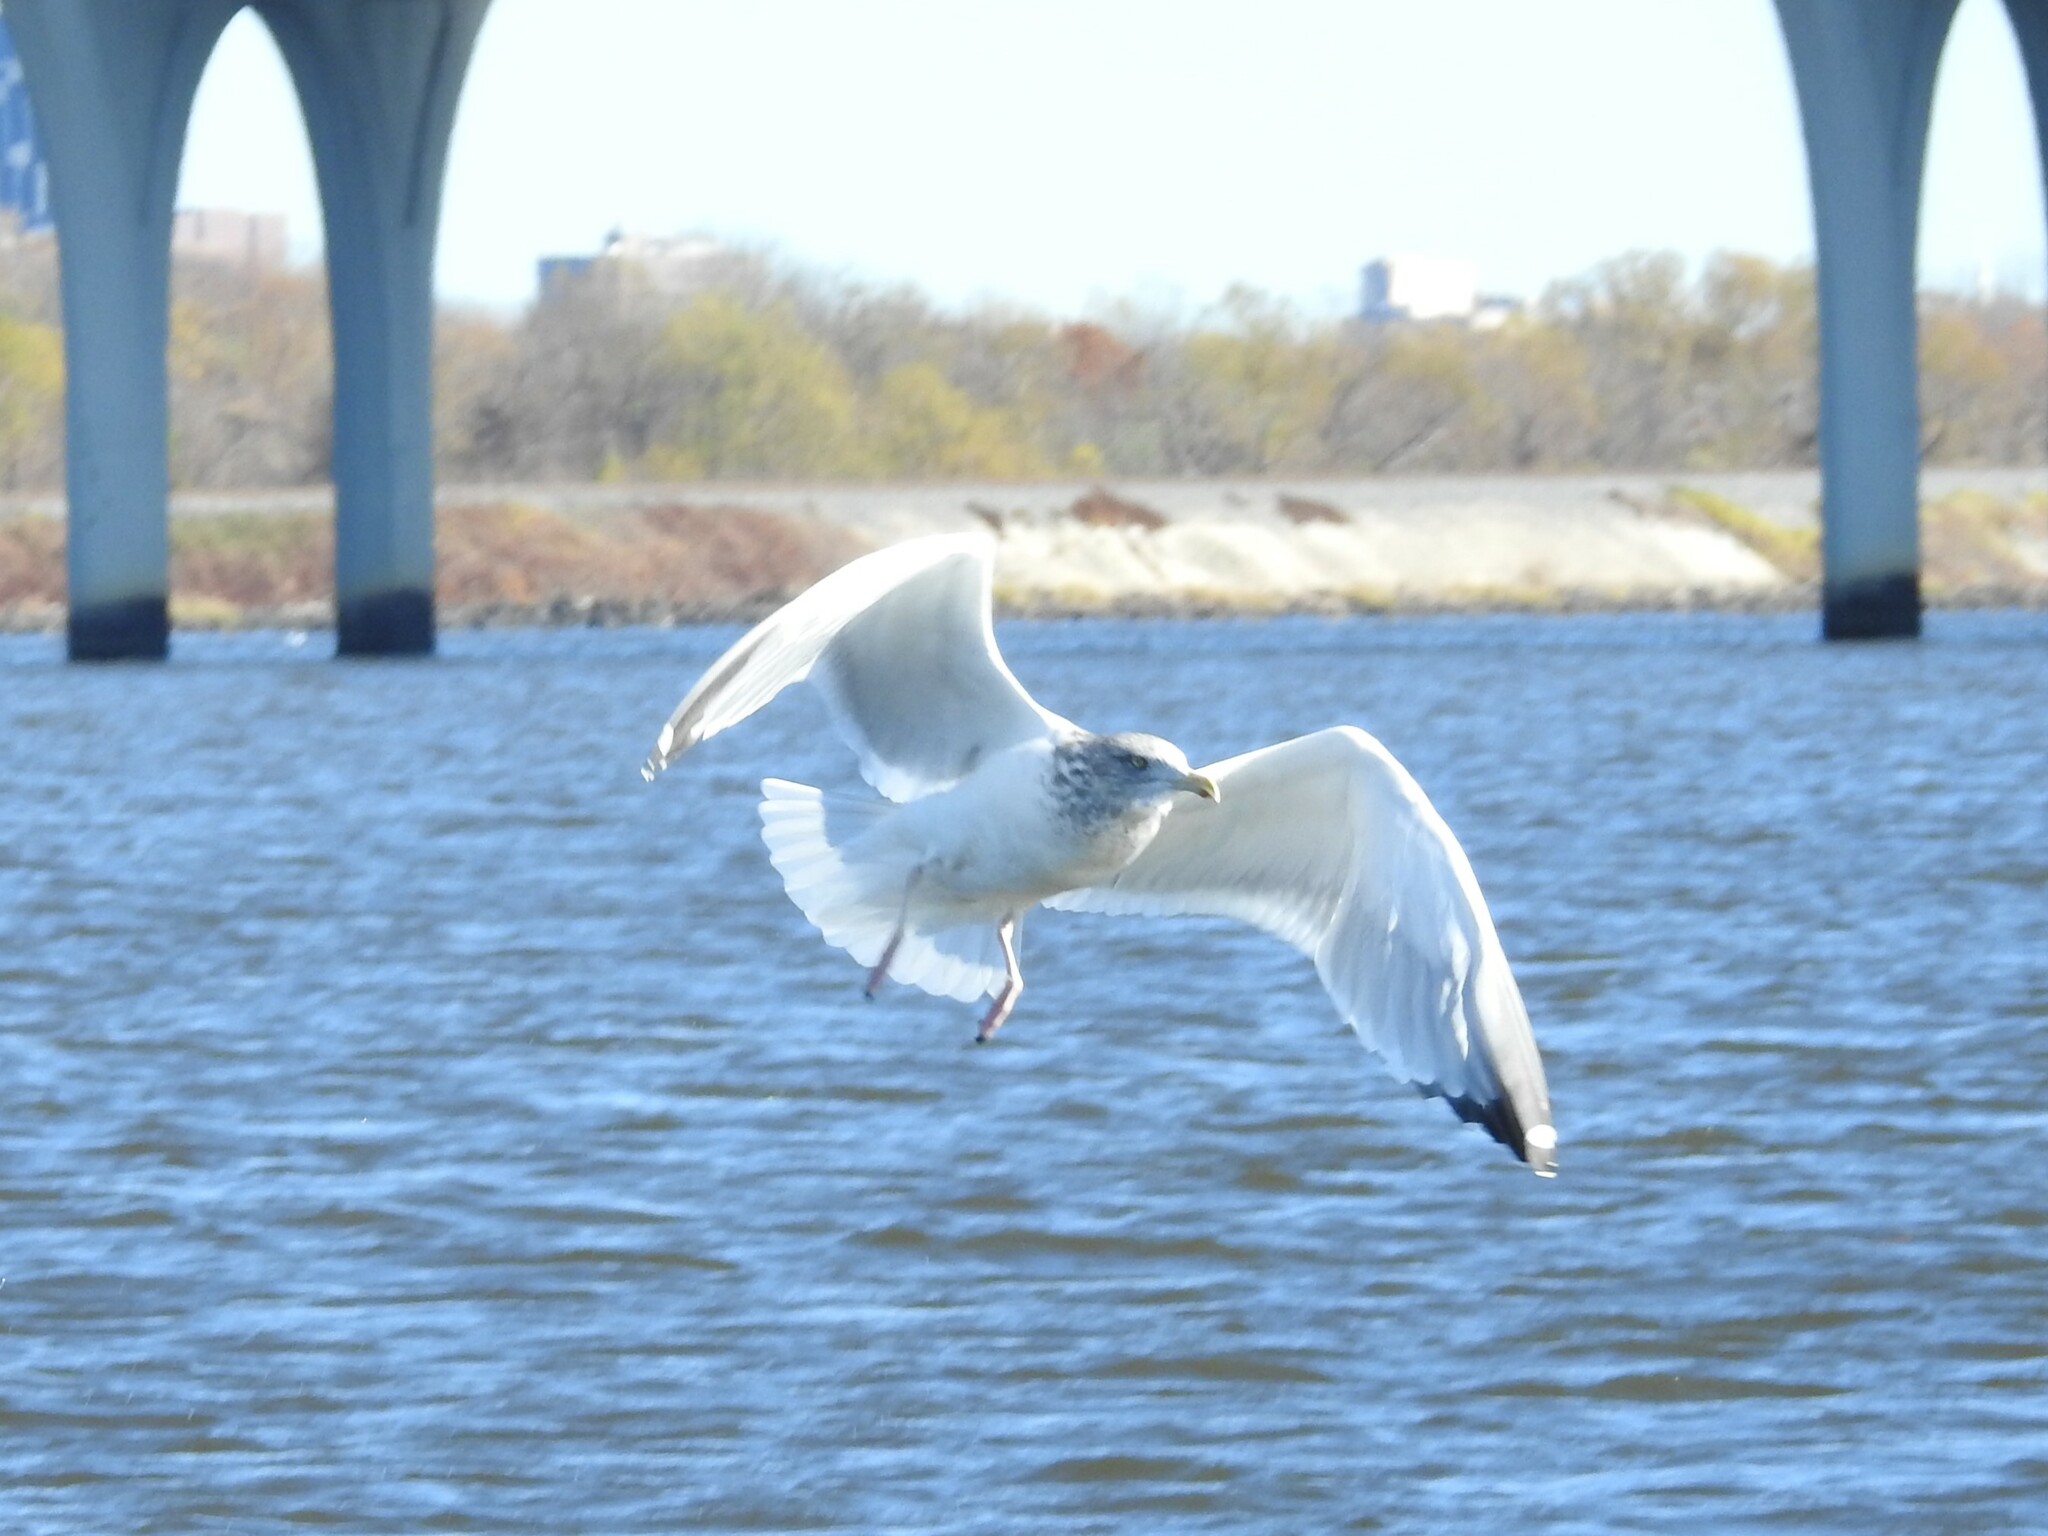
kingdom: Animalia
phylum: Chordata
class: Aves
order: Charadriiformes
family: Laridae
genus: Larus
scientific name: Larus argentatus
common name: Herring gull
